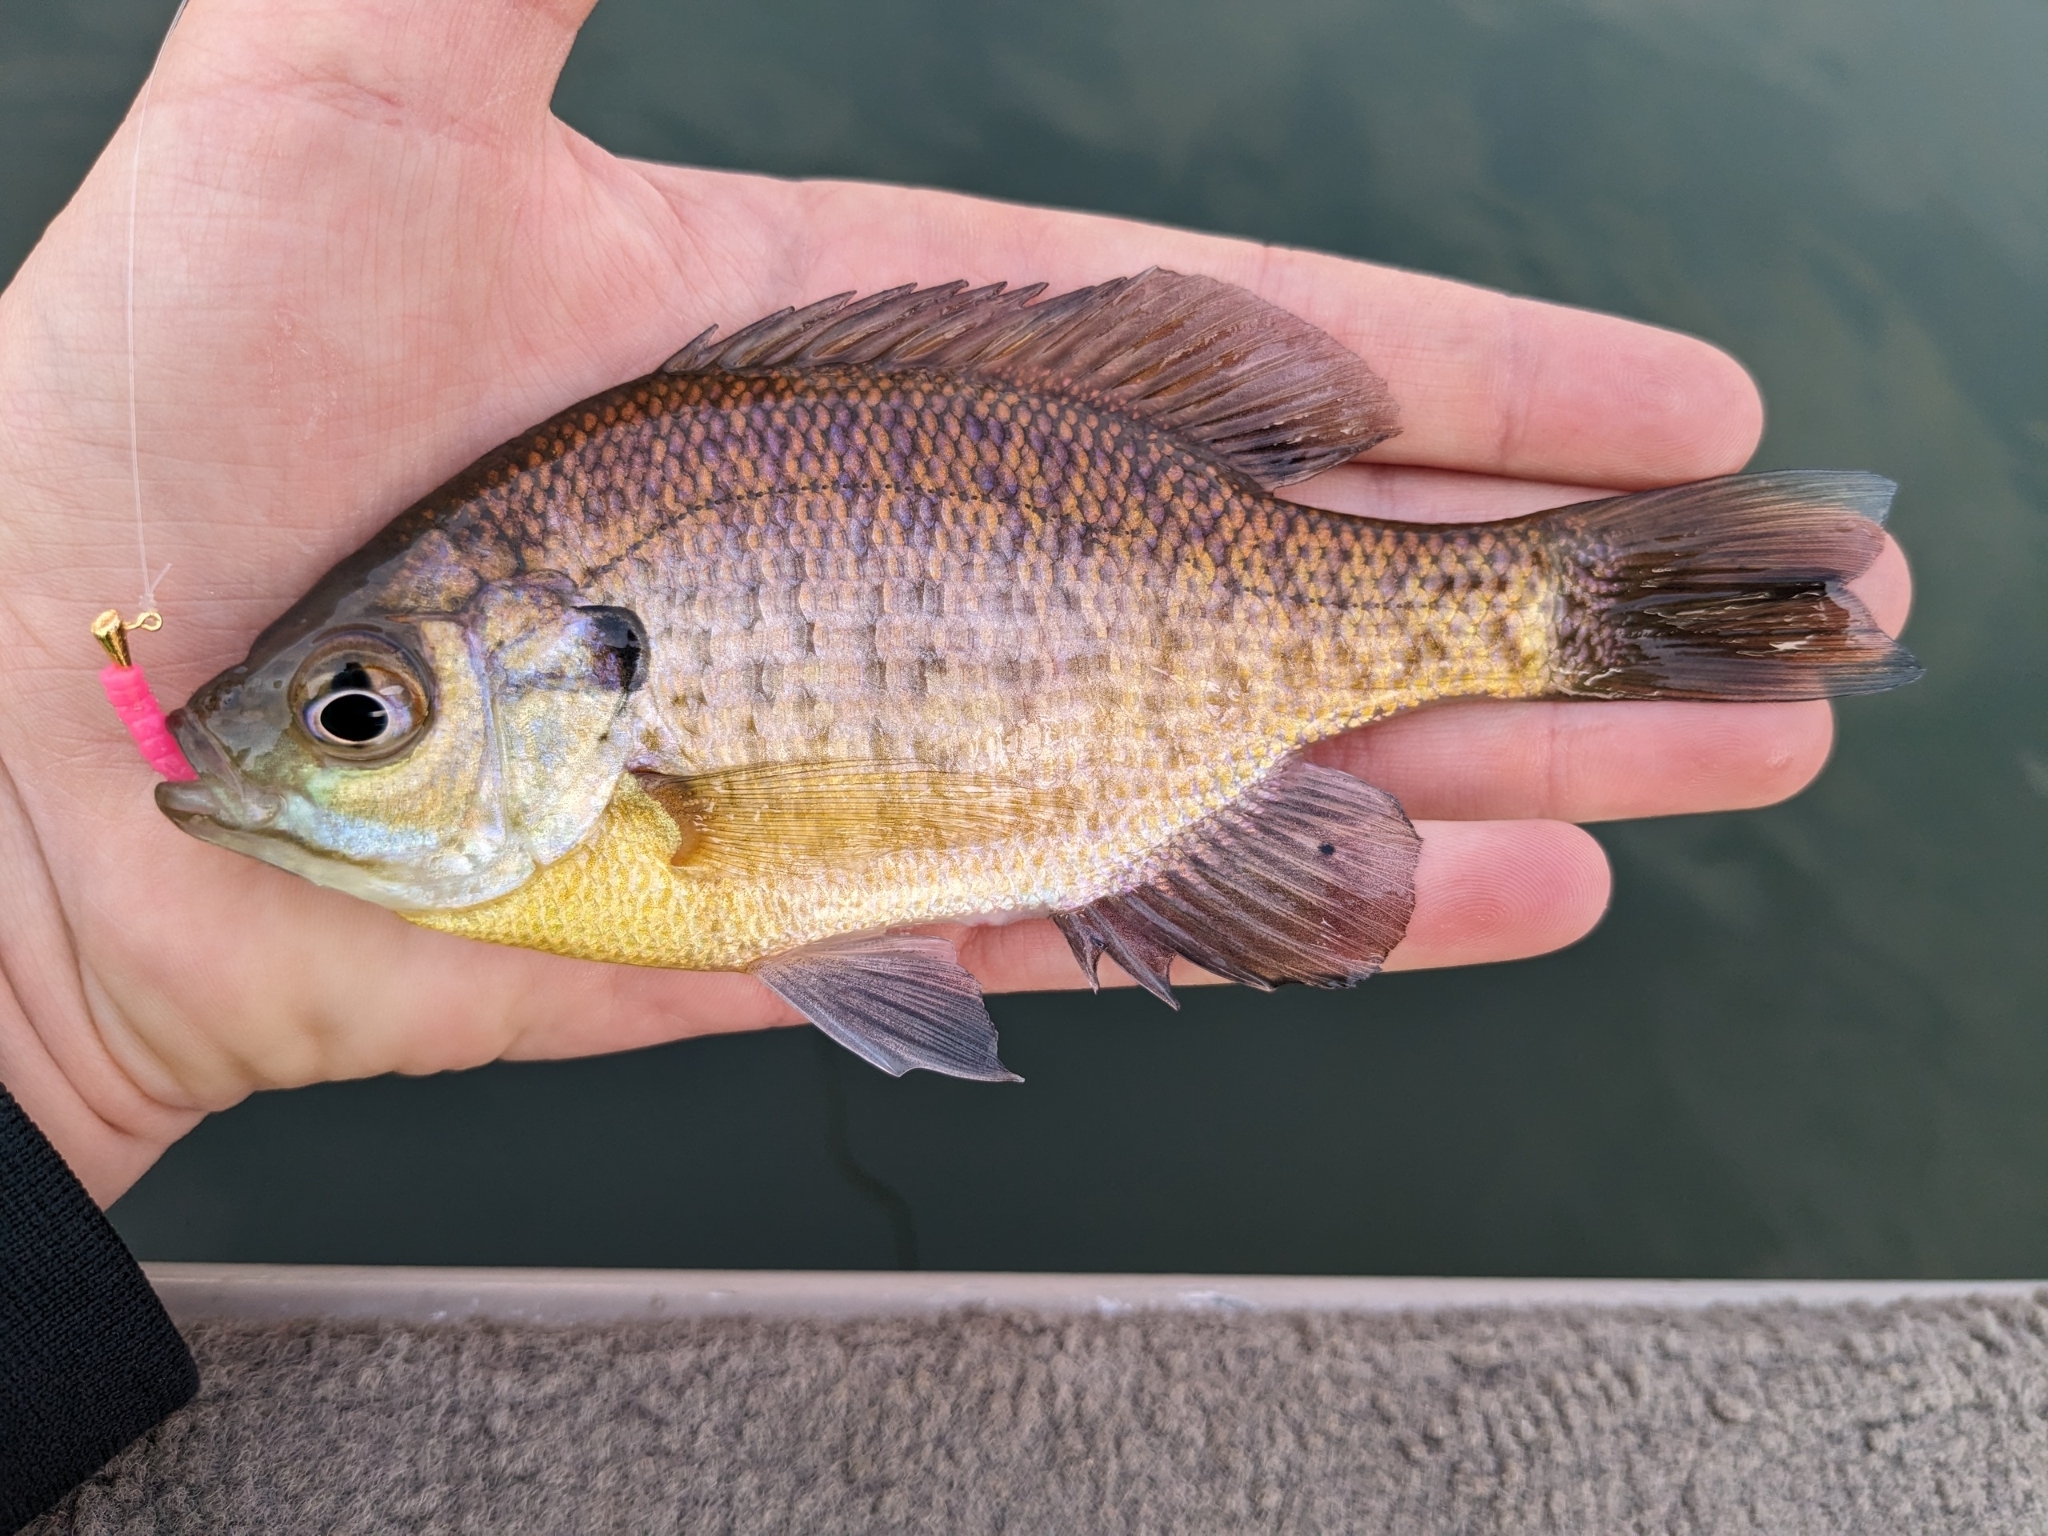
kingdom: Animalia
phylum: Chordata
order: Perciformes
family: Centrarchidae
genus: Lepomis
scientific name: Lepomis macrochirus
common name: Bluegill
